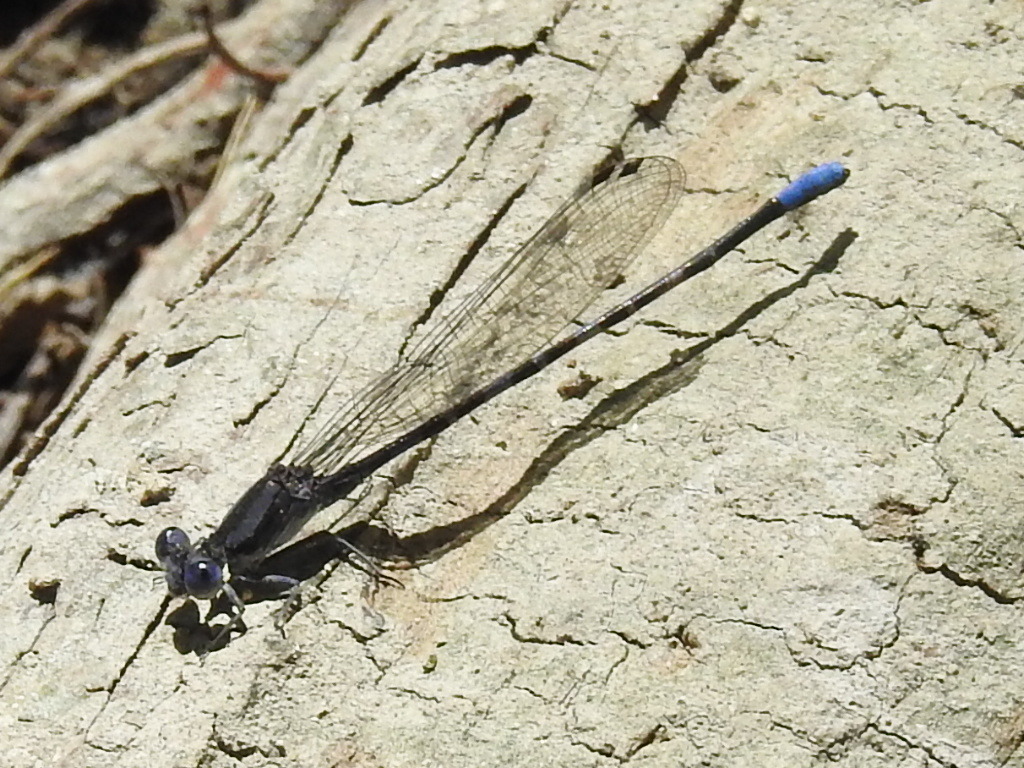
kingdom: Animalia
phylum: Arthropoda
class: Insecta
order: Odonata
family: Coenagrionidae
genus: Argia
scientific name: Argia immunda
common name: Kiowa dancer
